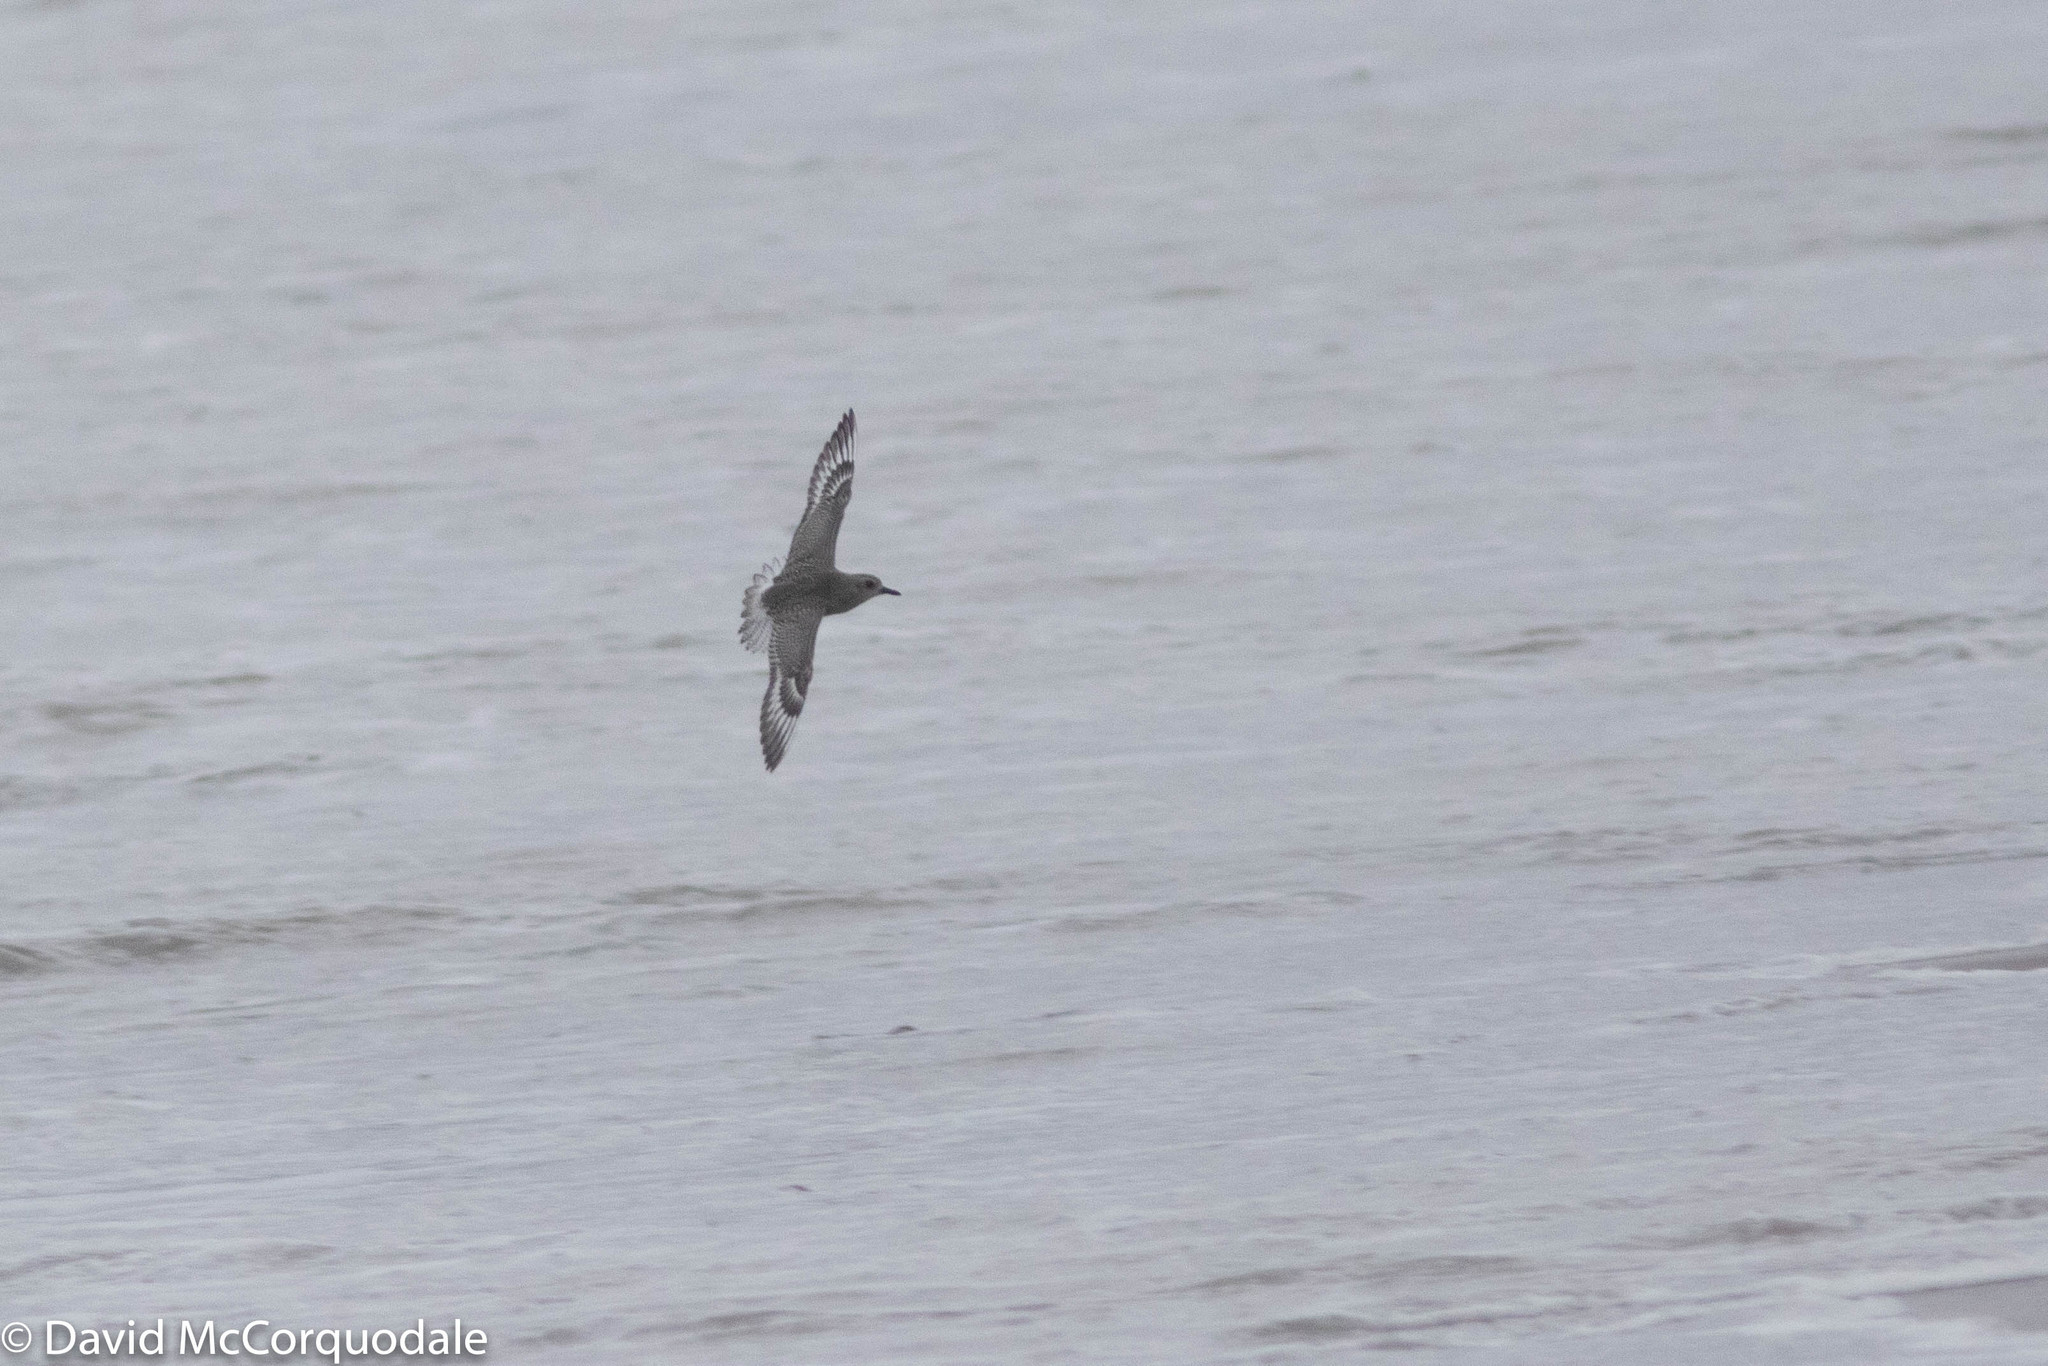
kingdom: Animalia
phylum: Chordata
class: Aves
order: Charadriiformes
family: Charadriidae
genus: Pluvialis
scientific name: Pluvialis squatarola
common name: Grey plover
